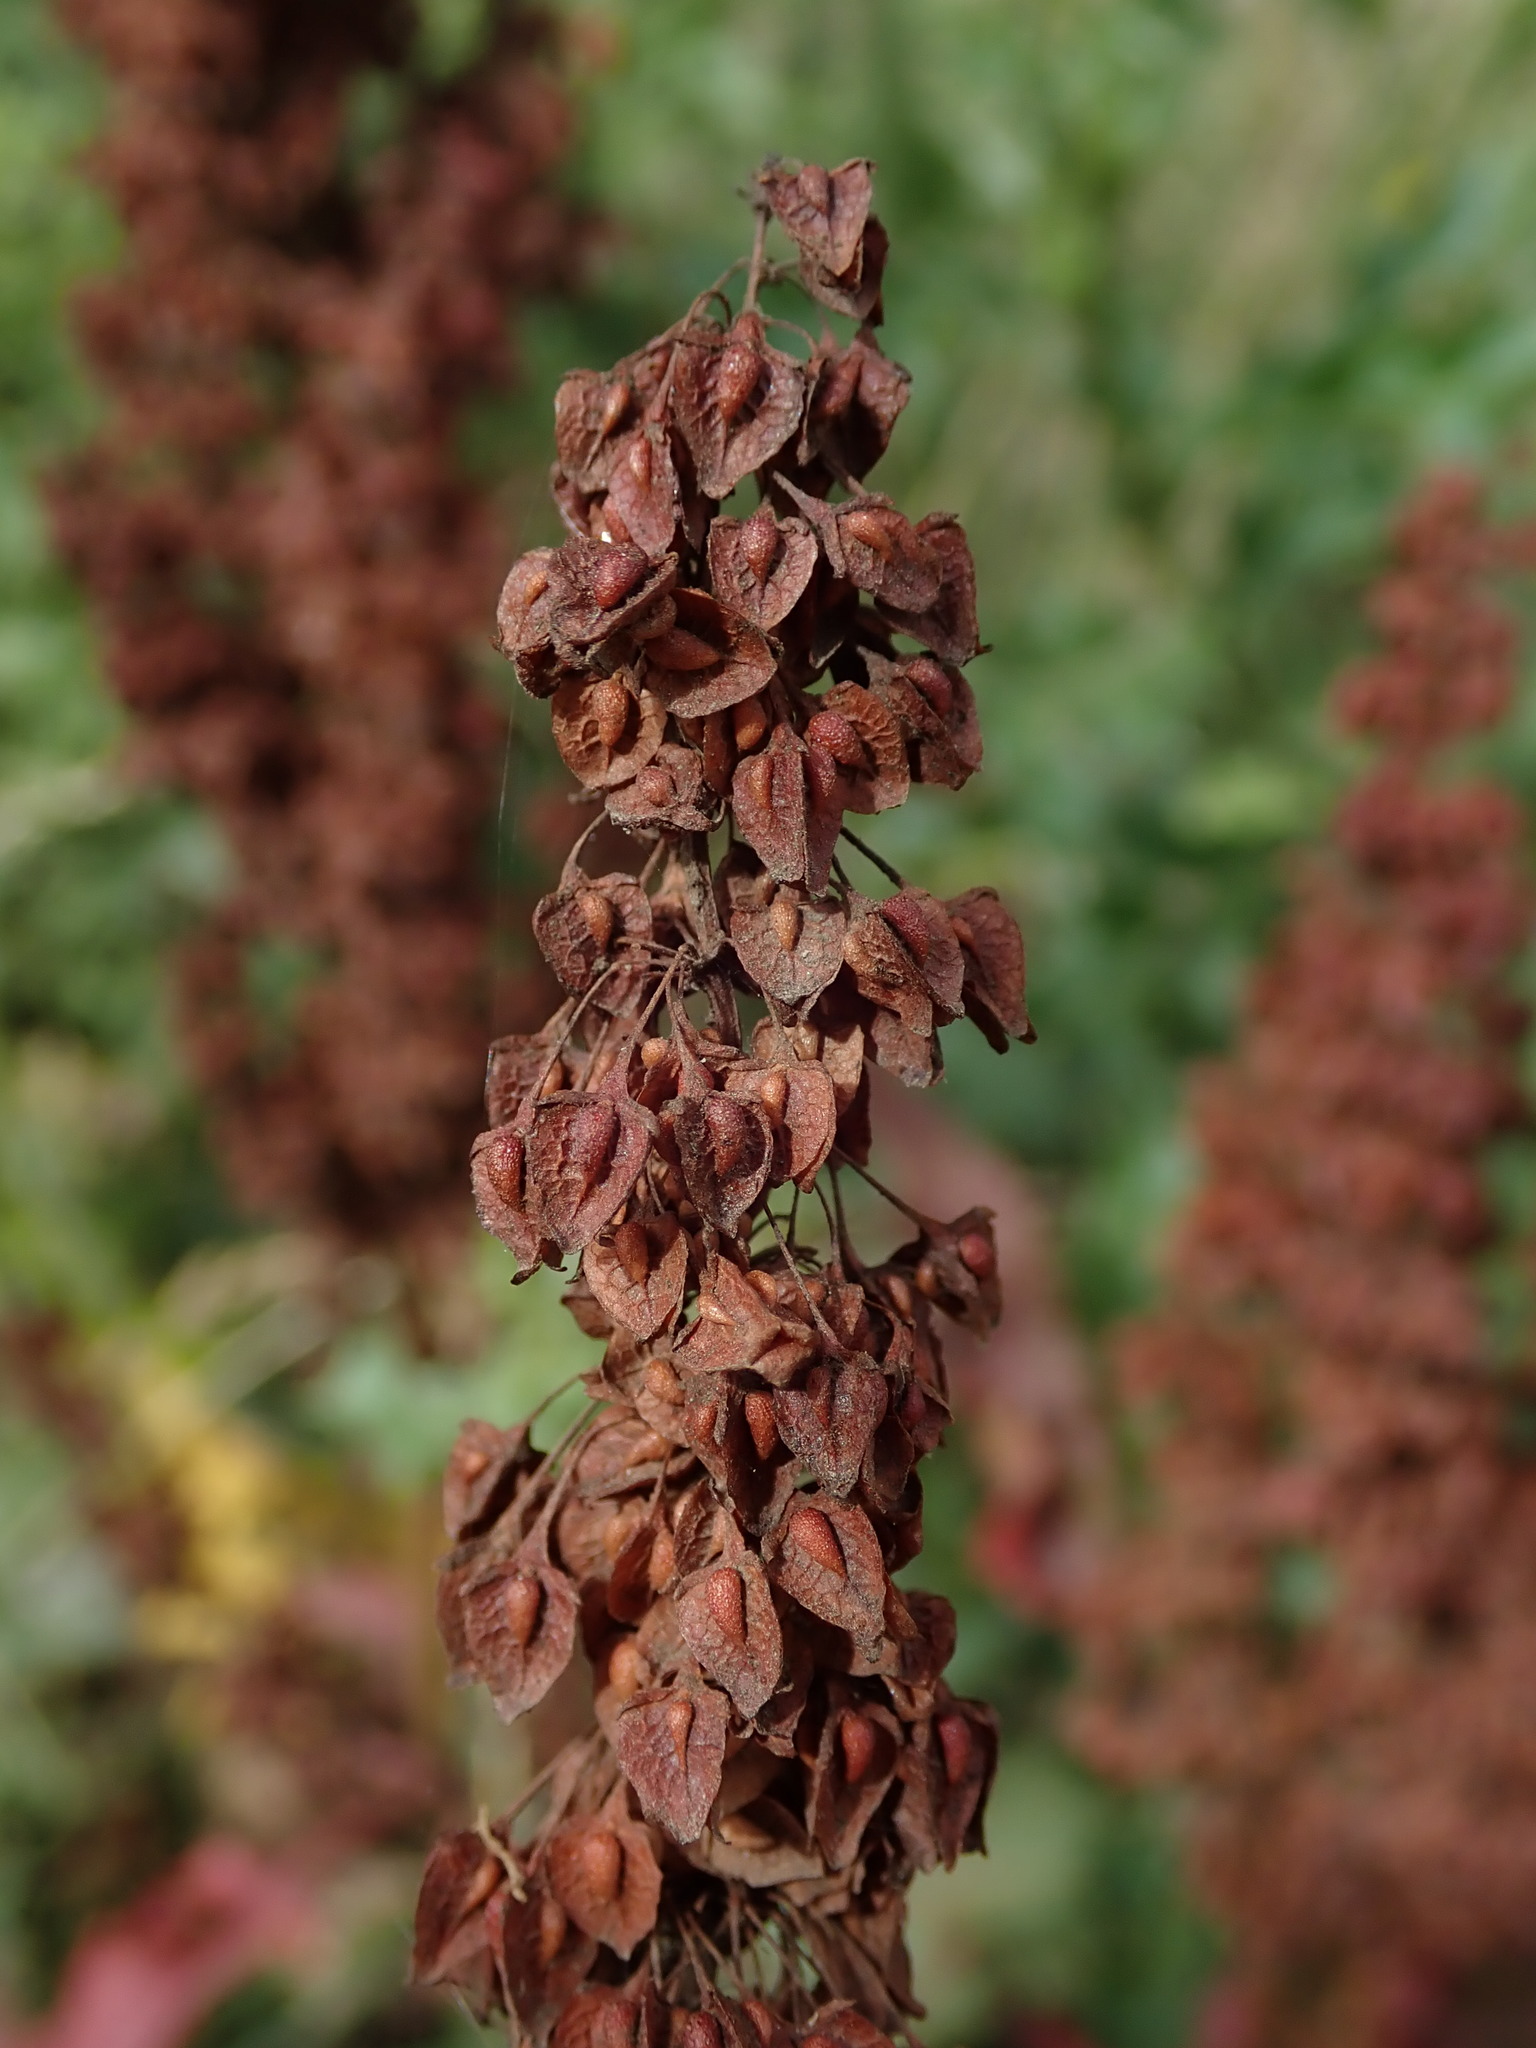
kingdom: Plantae
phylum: Tracheophyta
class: Magnoliopsida
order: Caryophyllales
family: Polygonaceae
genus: Rumex
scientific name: Rumex crispus
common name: Curled dock
